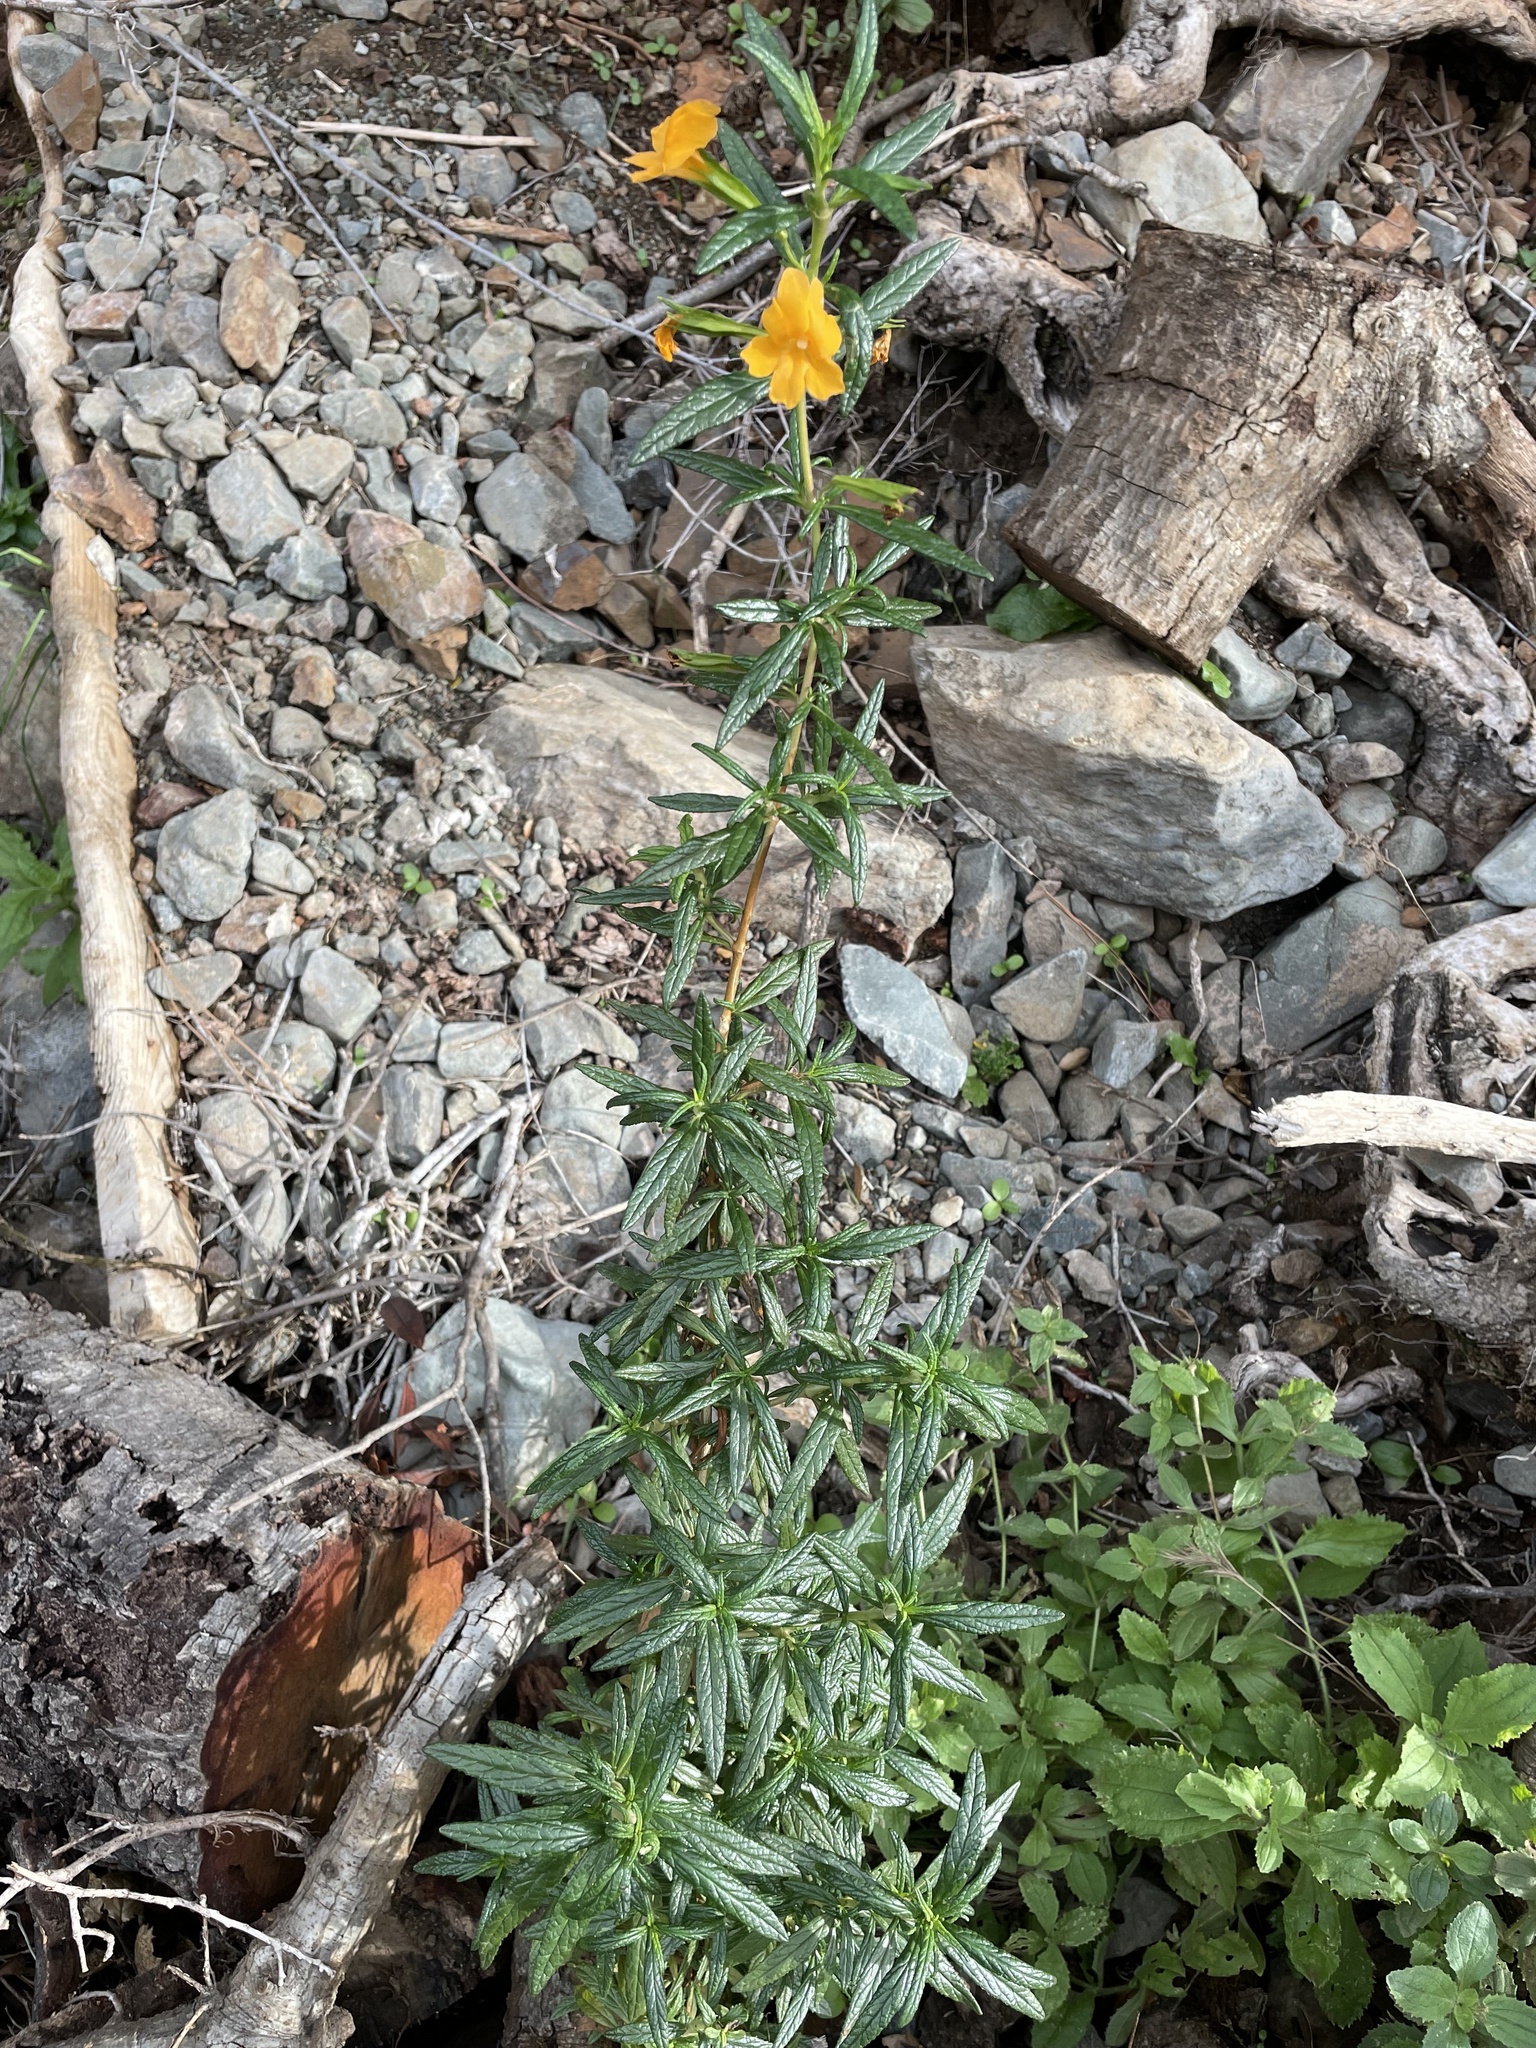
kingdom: Plantae
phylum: Tracheophyta
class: Magnoliopsida
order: Lamiales
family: Phrymaceae
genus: Diplacus
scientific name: Diplacus aurantiacus
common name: Bush monkey-flower
